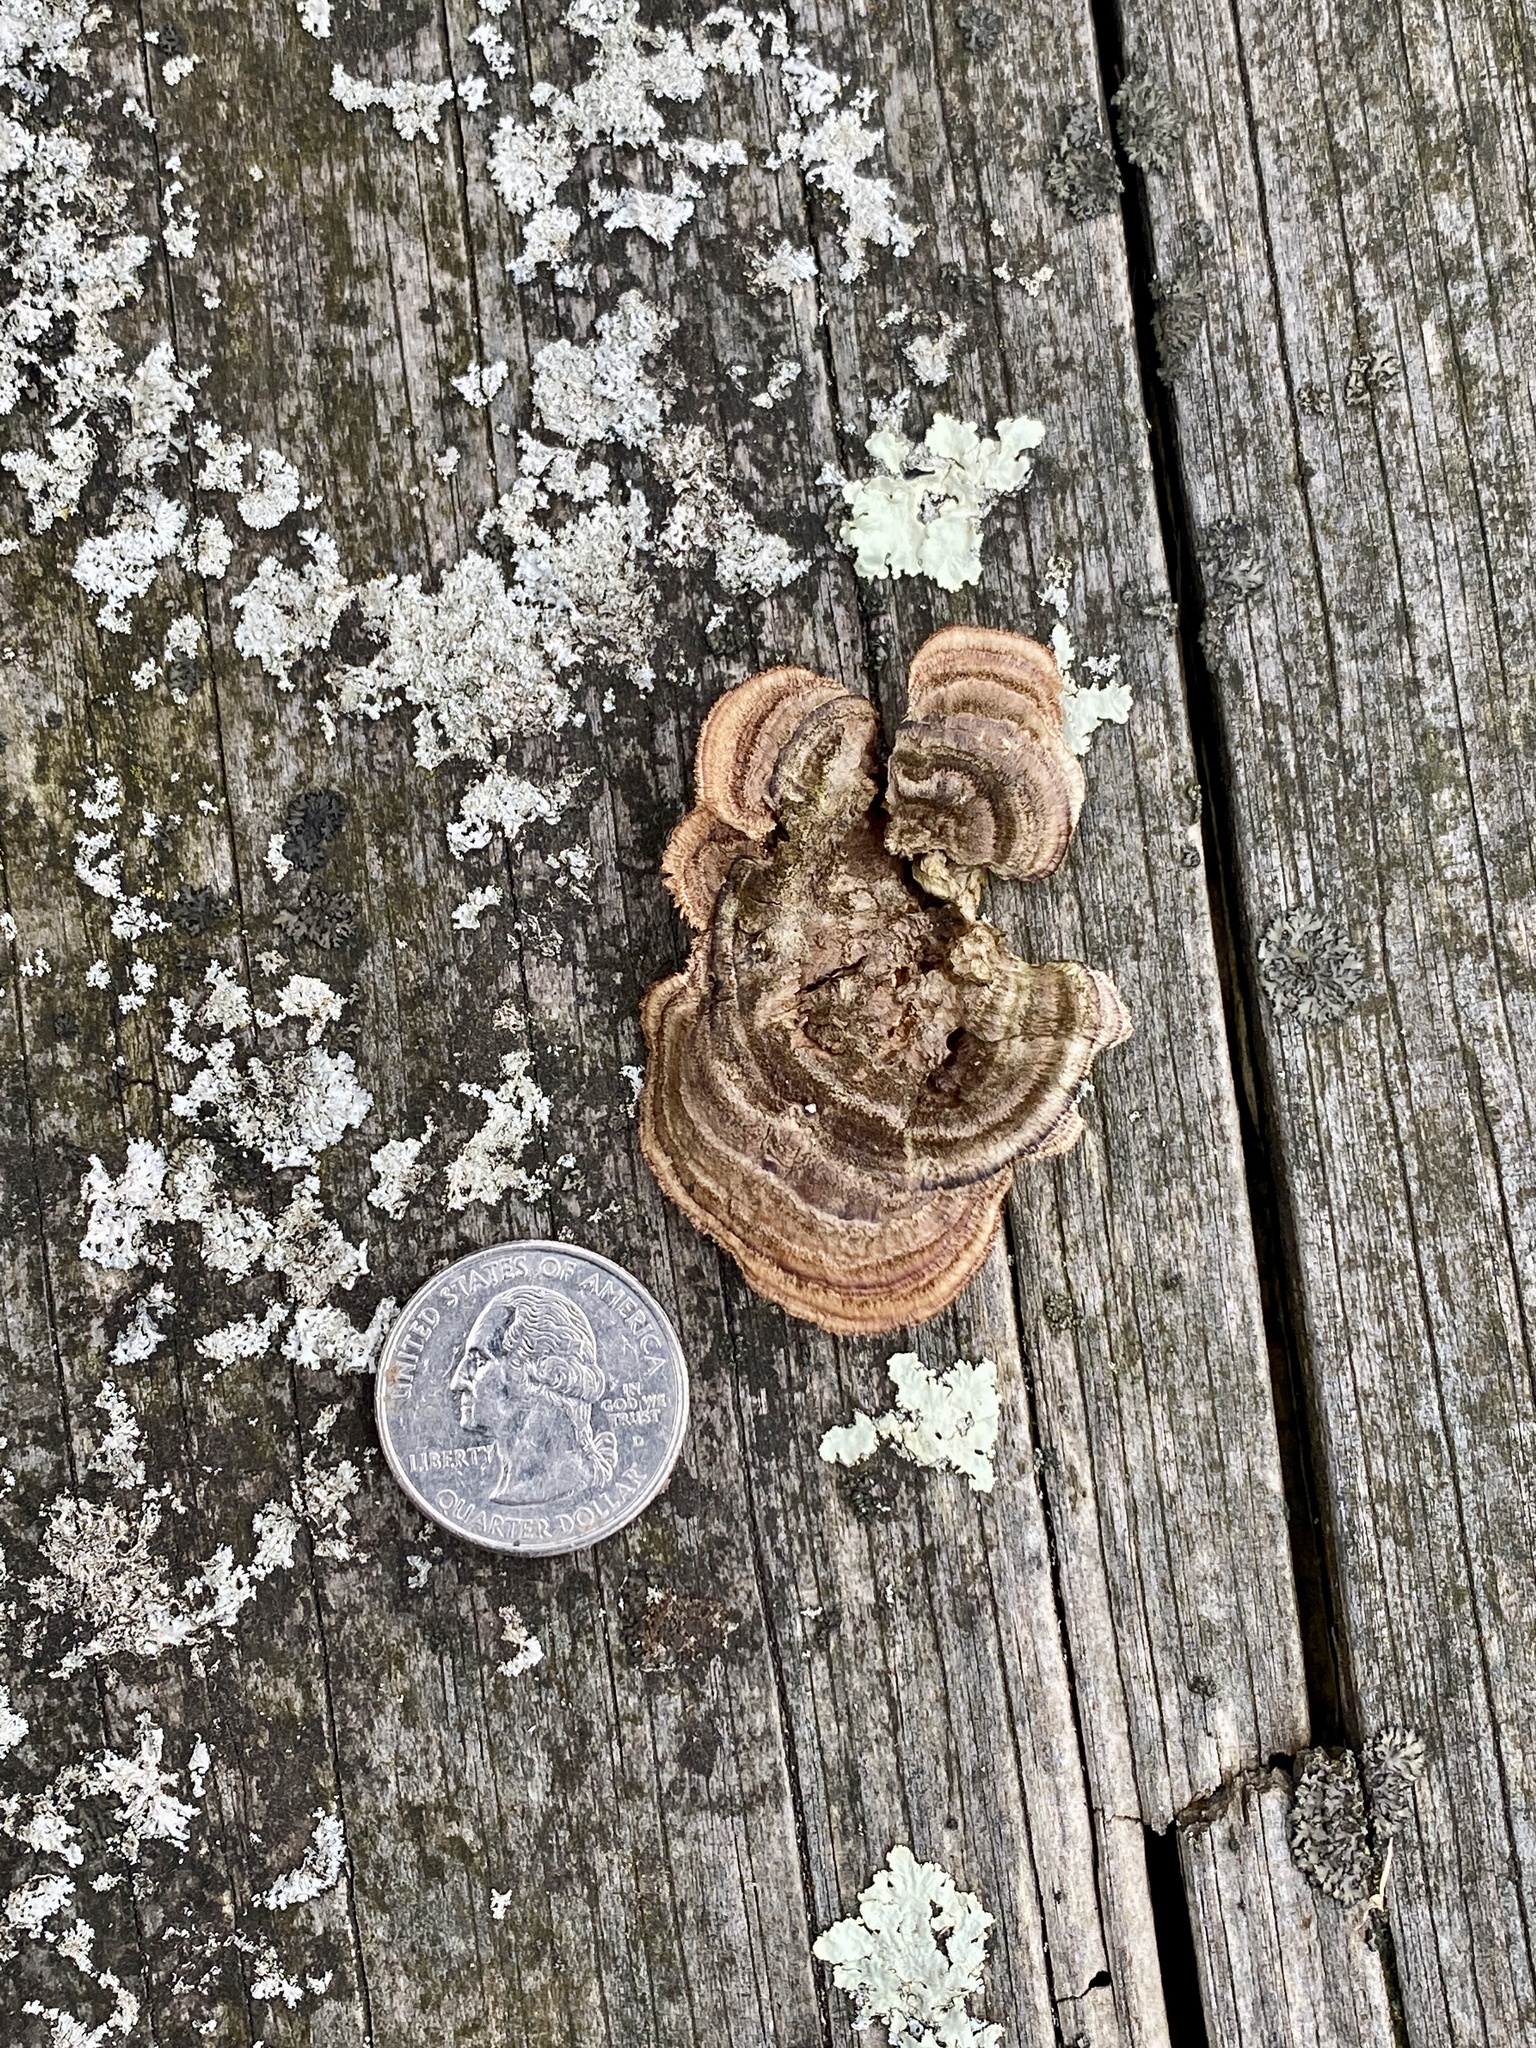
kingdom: Fungi
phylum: Basidiomycota
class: Agaricomycetes
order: Gloeophyllales
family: Gloeophyllaceae
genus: Gloeophyllum
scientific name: Gloeophyllum sepiarium
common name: Conifer mazegill
